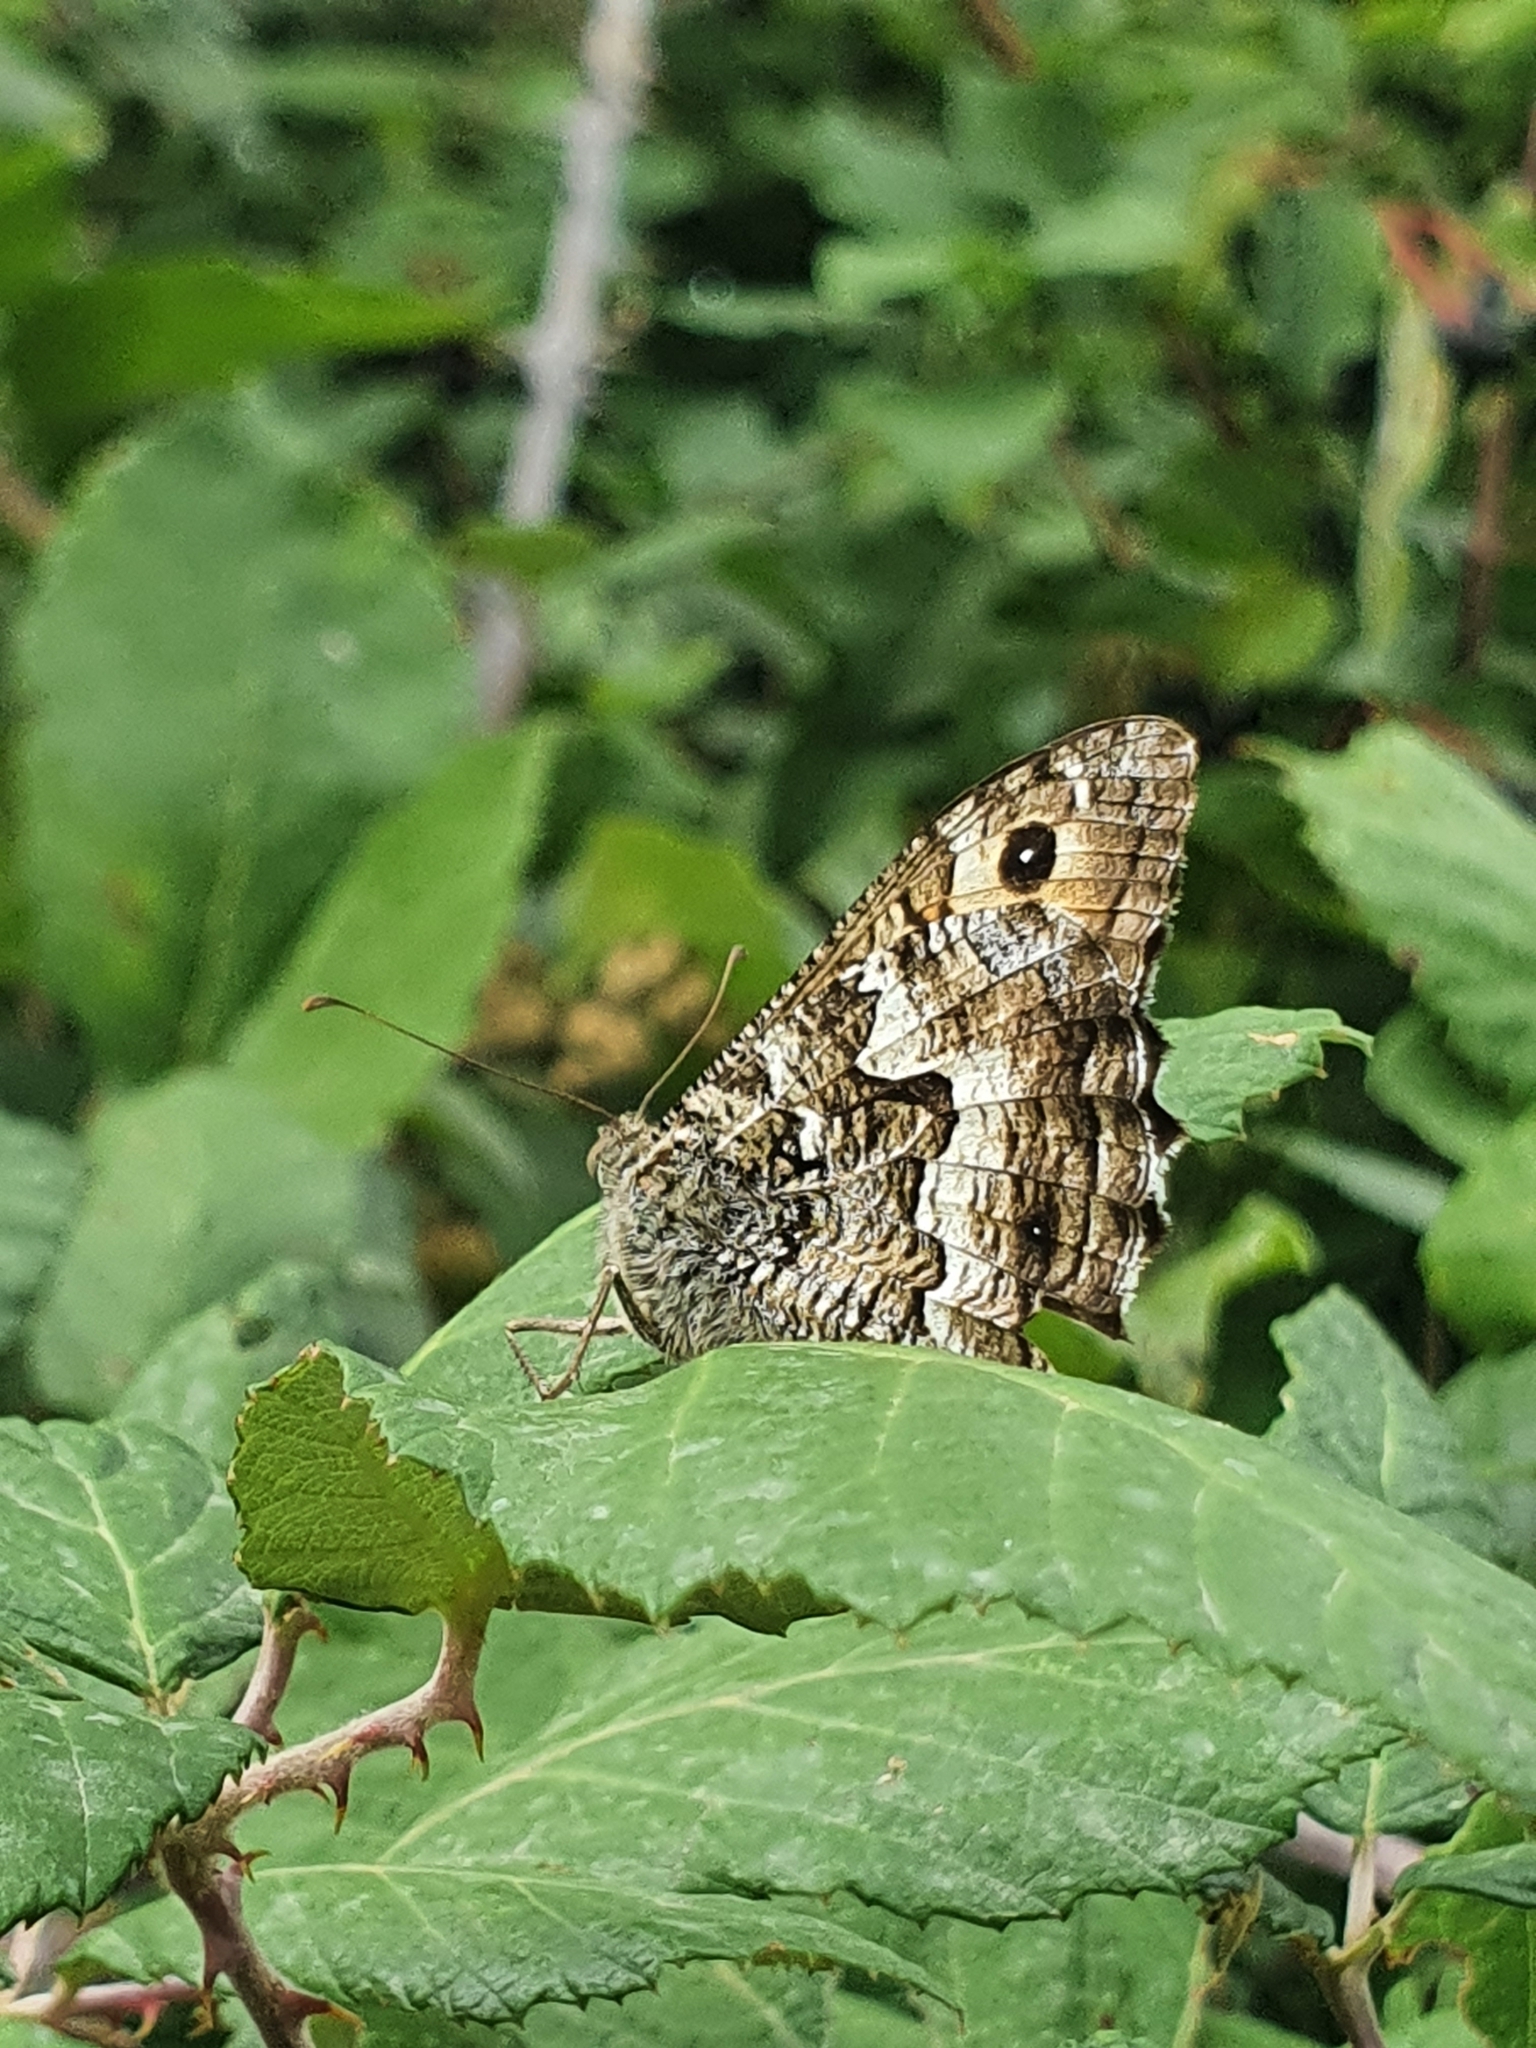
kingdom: Animalia
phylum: Arthropoda
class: Insecta
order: Lepidoptera
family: Nymphalidae
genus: Hipparchia
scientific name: Hipparchia semele
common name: Grayling
